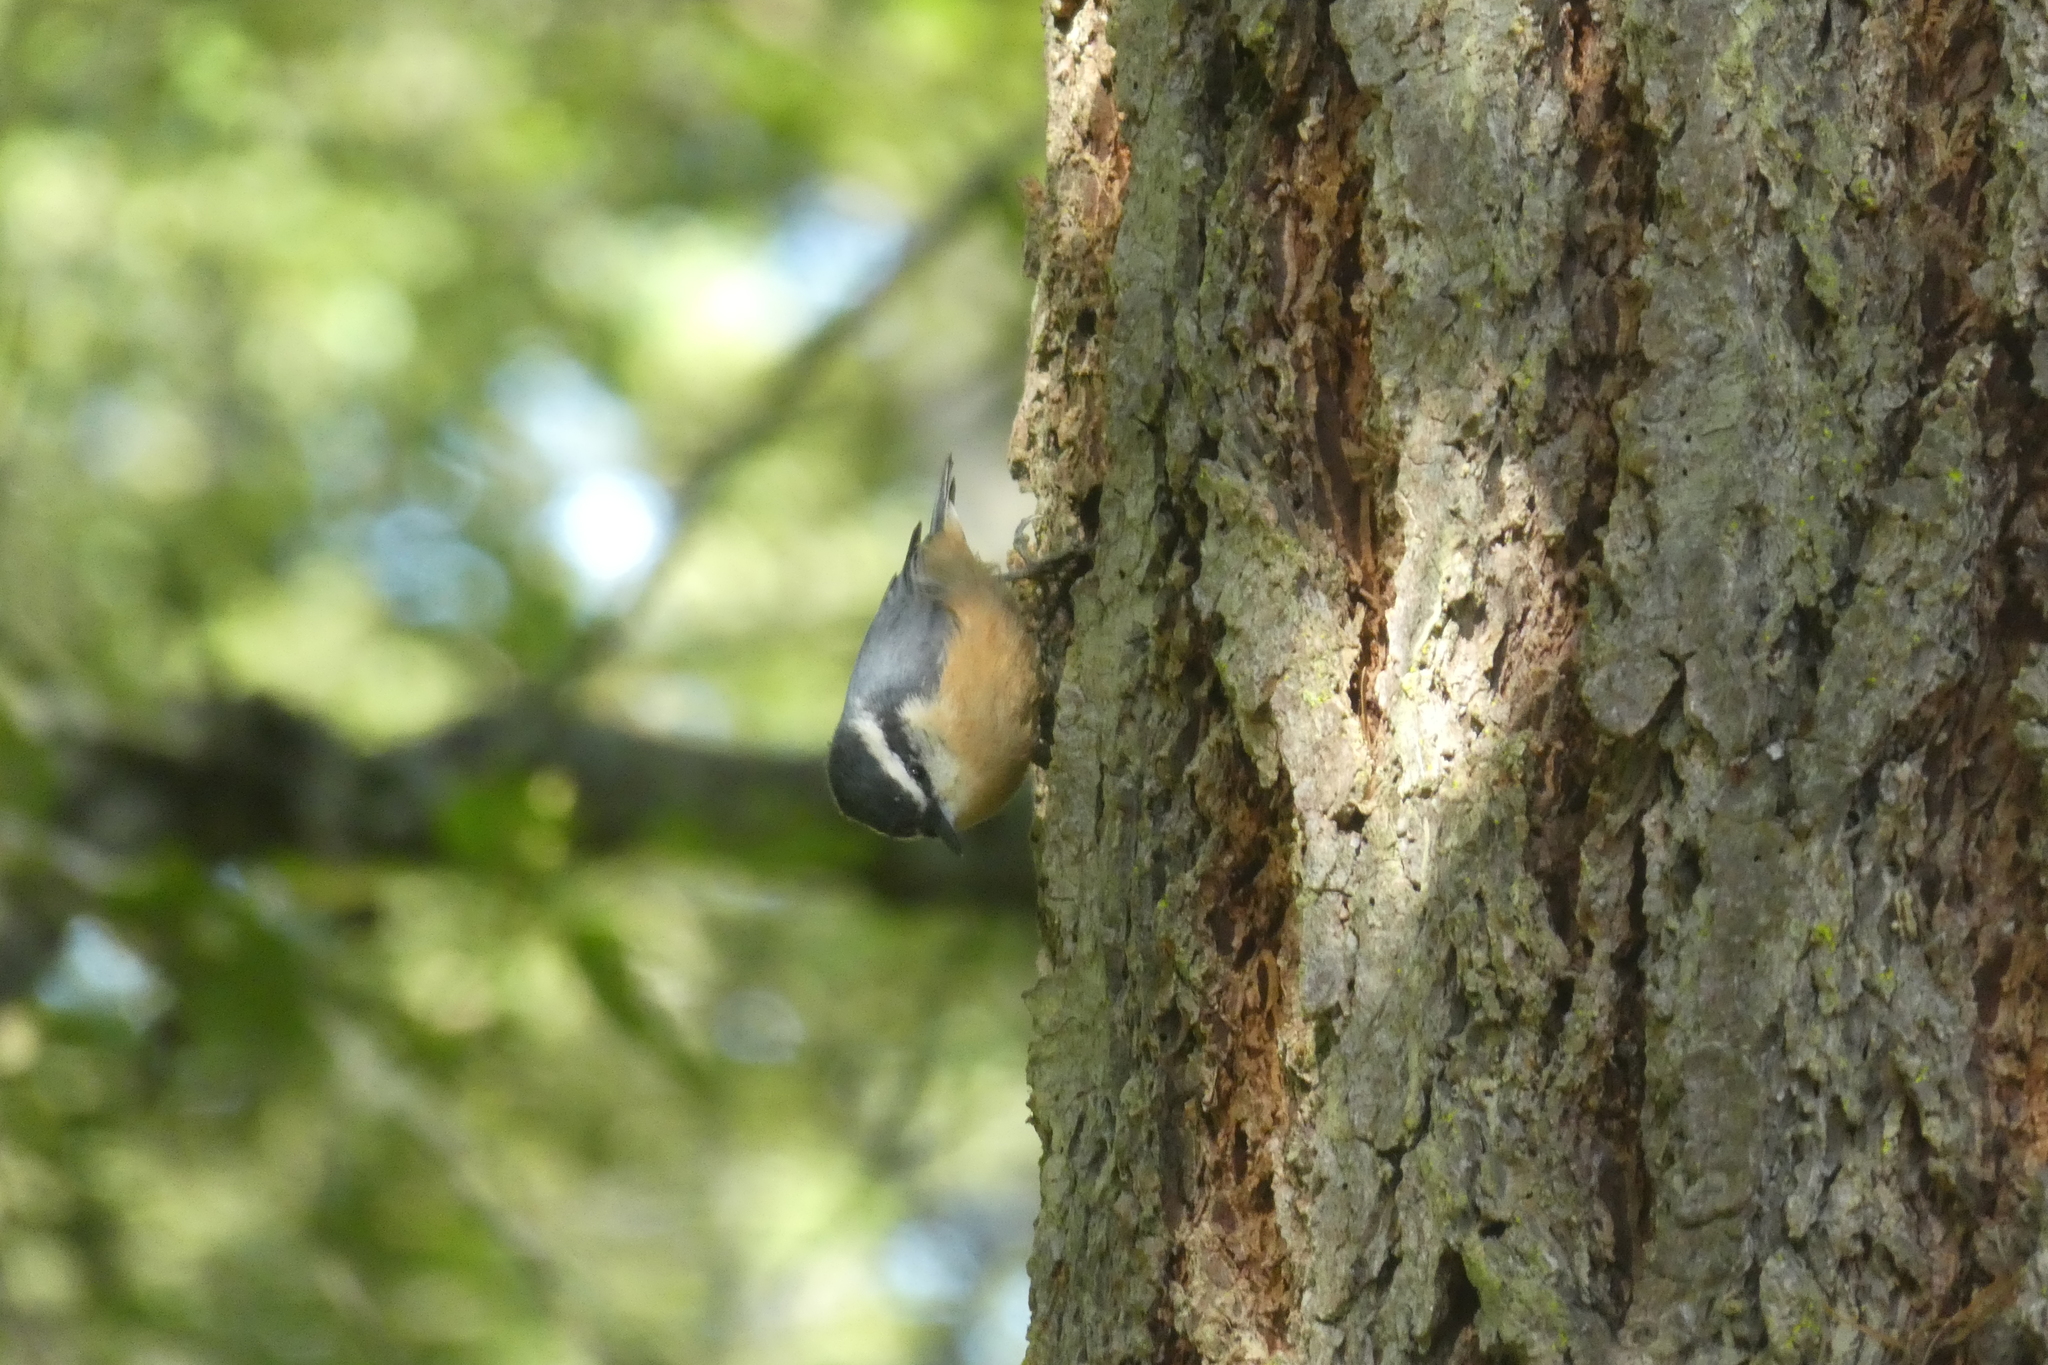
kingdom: Animalia
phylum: Chordata
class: Aves
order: Passeriformes
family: Sittidae
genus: Sitta
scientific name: Sitta canadensis
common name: Red-breasted nuthatch
